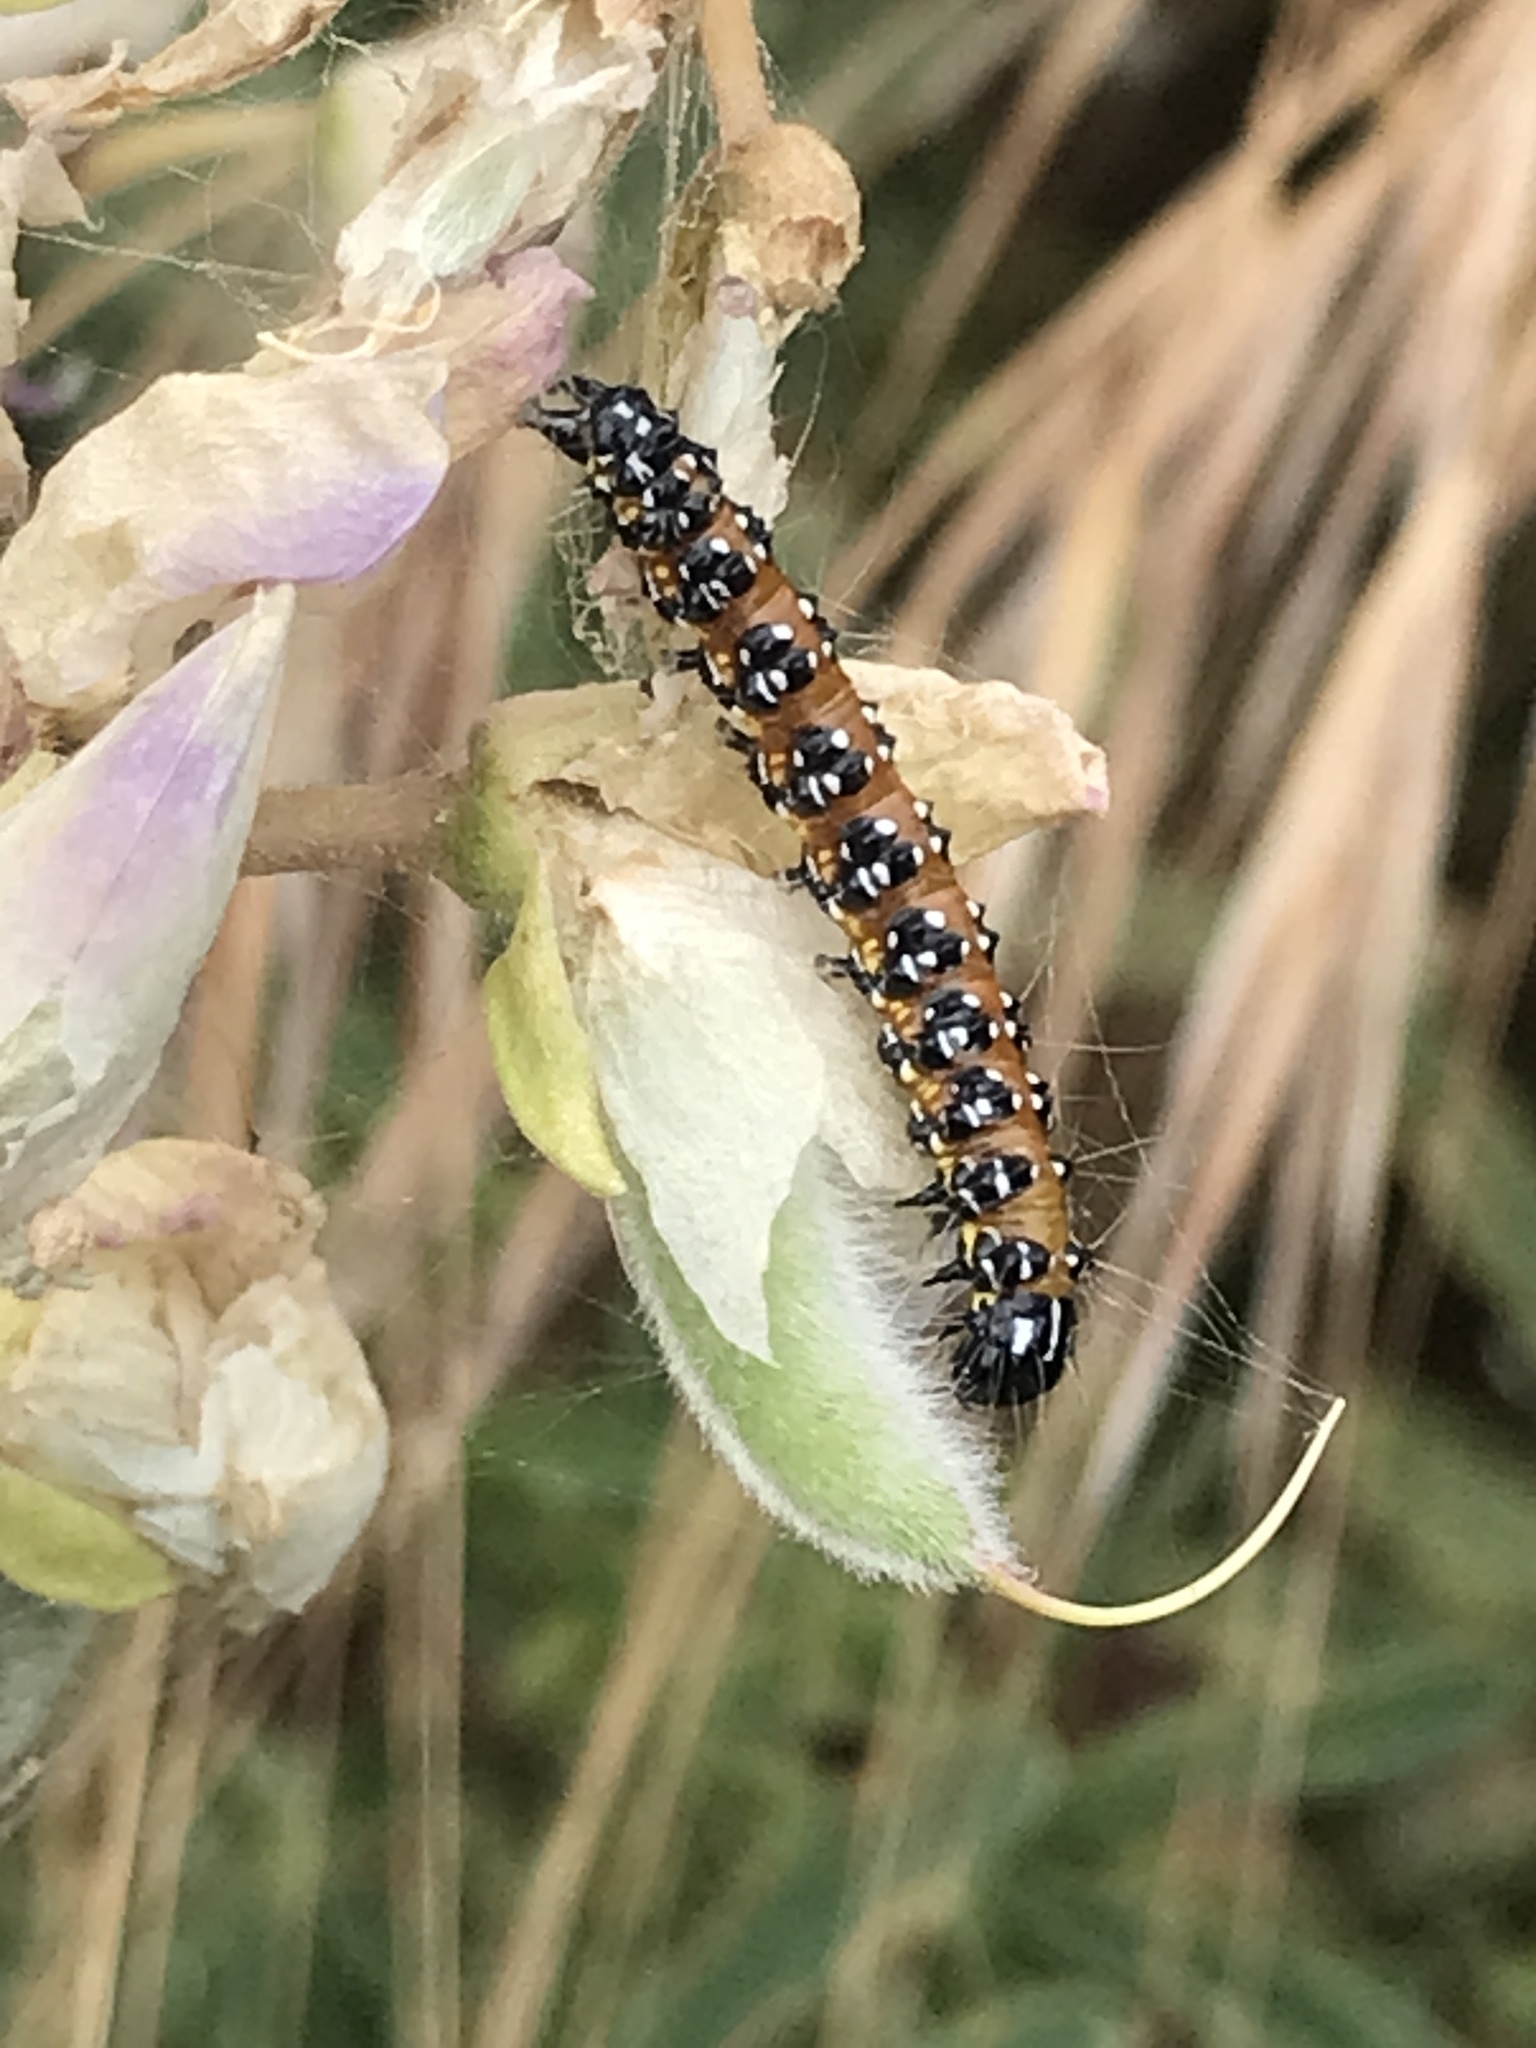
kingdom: Animalia
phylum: Arthropoda
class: Insecta
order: Lepidoptera
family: Crambidae
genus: Uresiphita
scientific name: Uresiphita reversalis
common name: Genista broom moth
